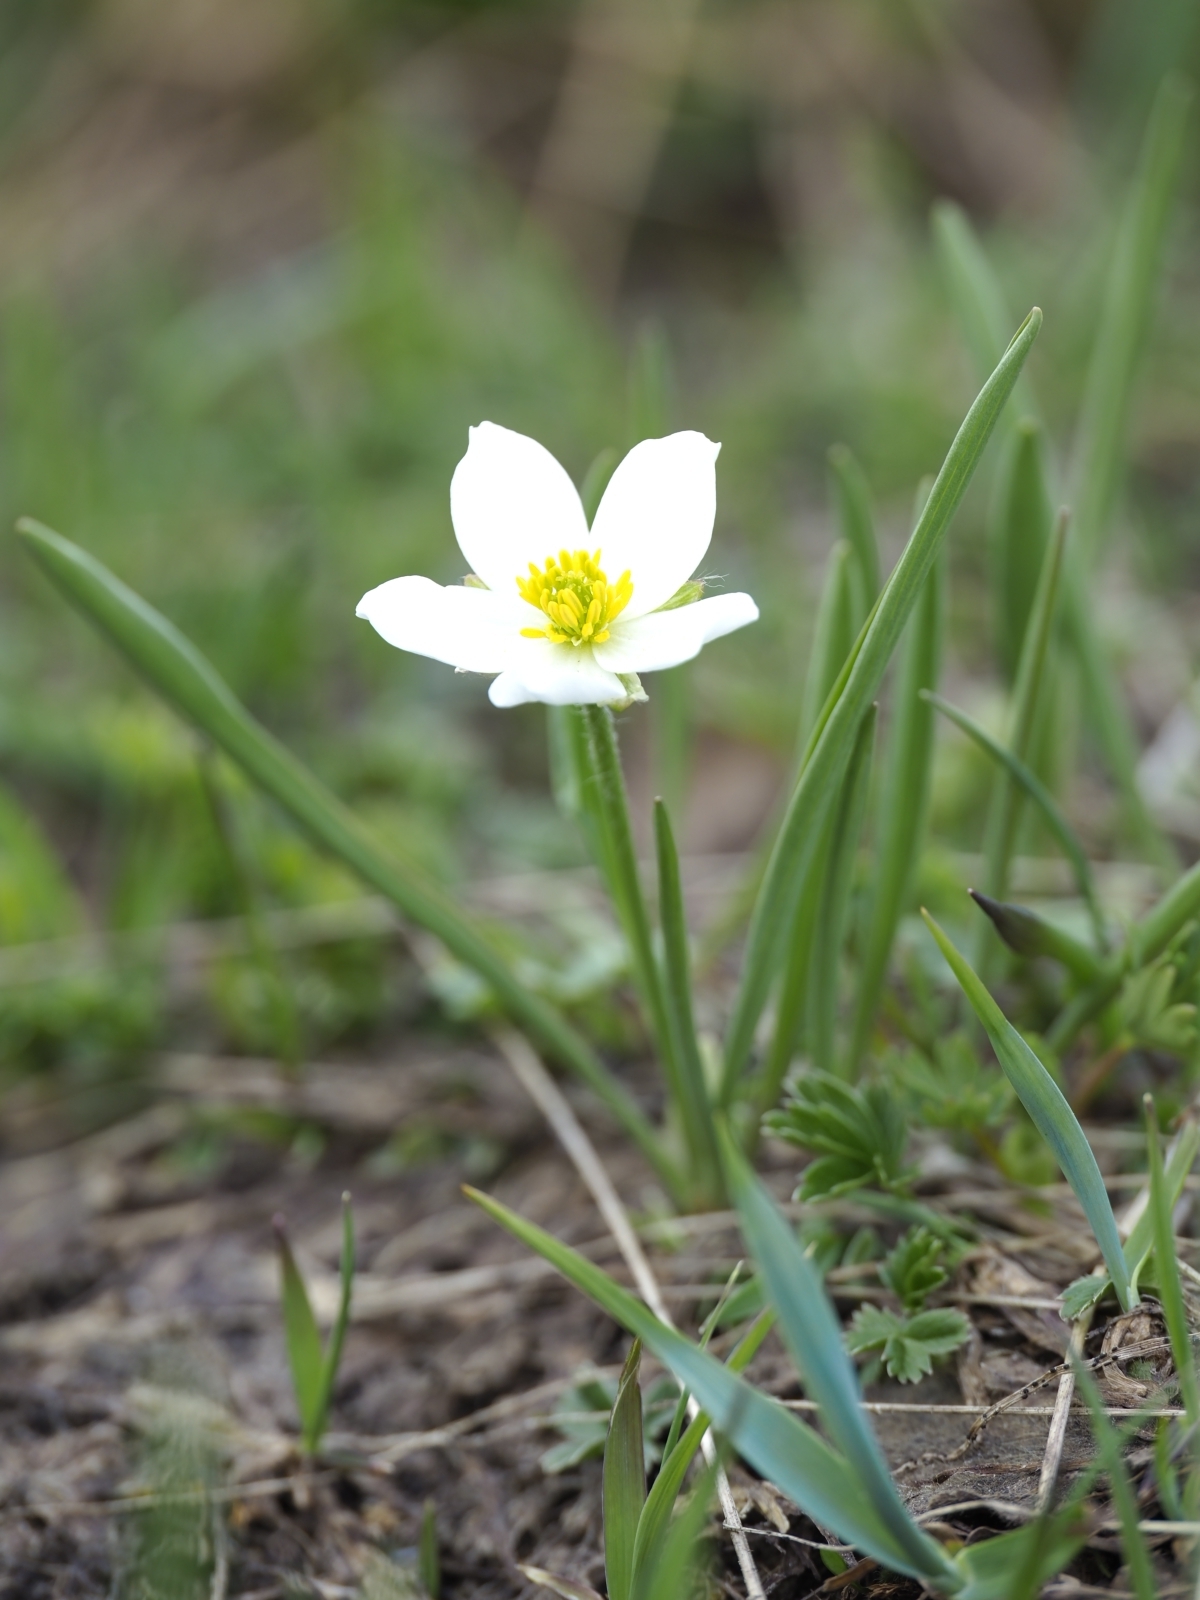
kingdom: Plantae
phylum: Tracheophyta
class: Magnoliopsida
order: Ranunculales
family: Ranunculaceae
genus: Ranunculus
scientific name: Ranunculus kuepferi
